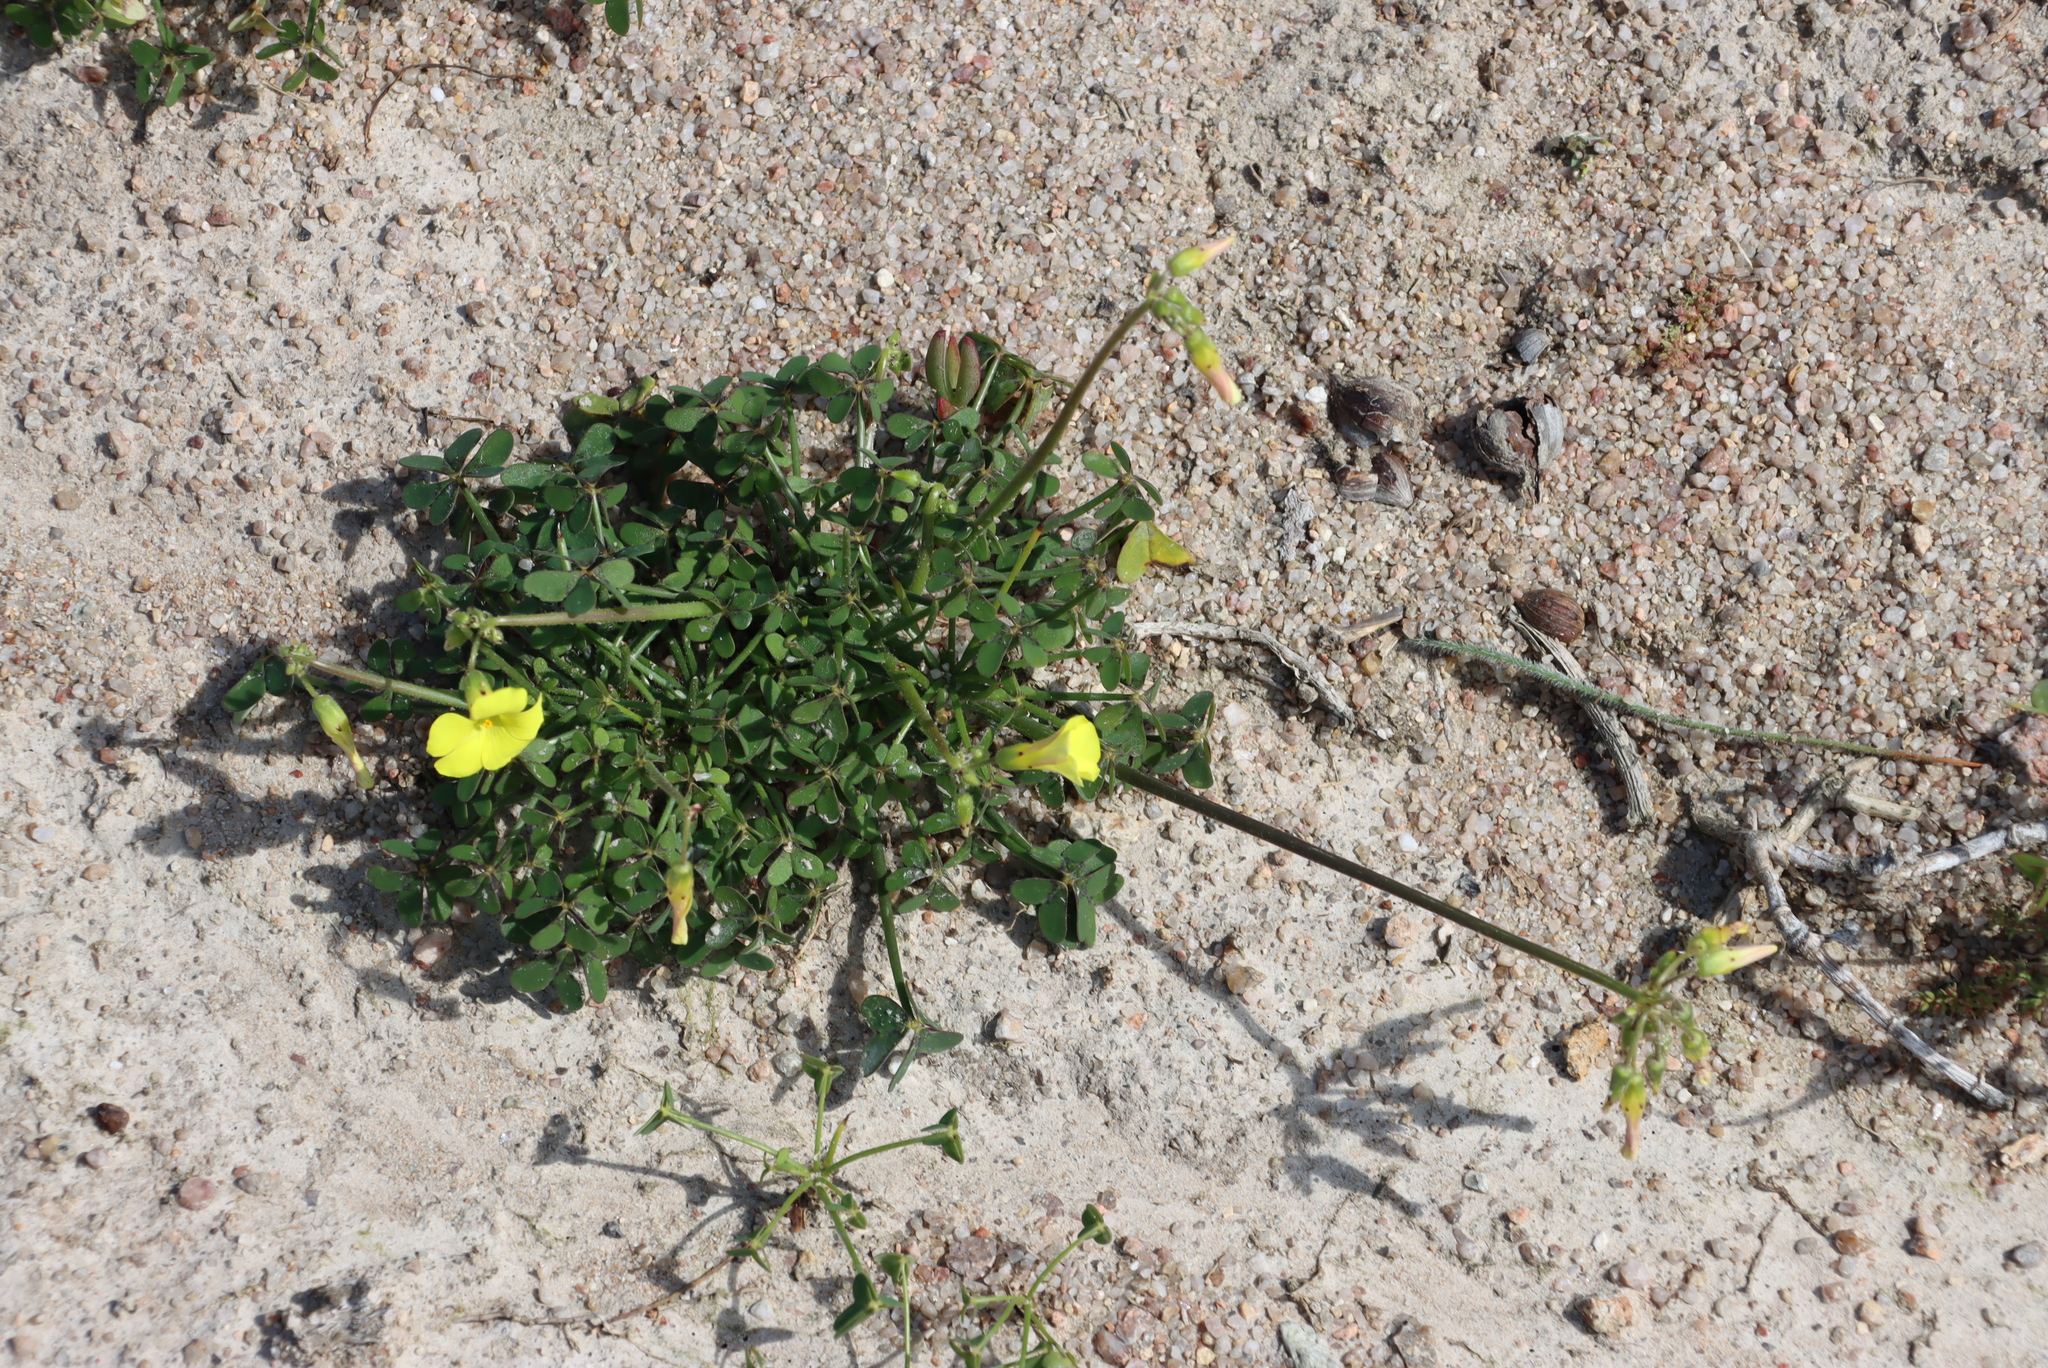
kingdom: Plantae
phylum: Tracheophyta
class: Magnoliopsida
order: Oxalidales
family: Oxalidaceae
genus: Oxalis
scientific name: Oxalis pes-caprae
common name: Bermuda-buttercup
